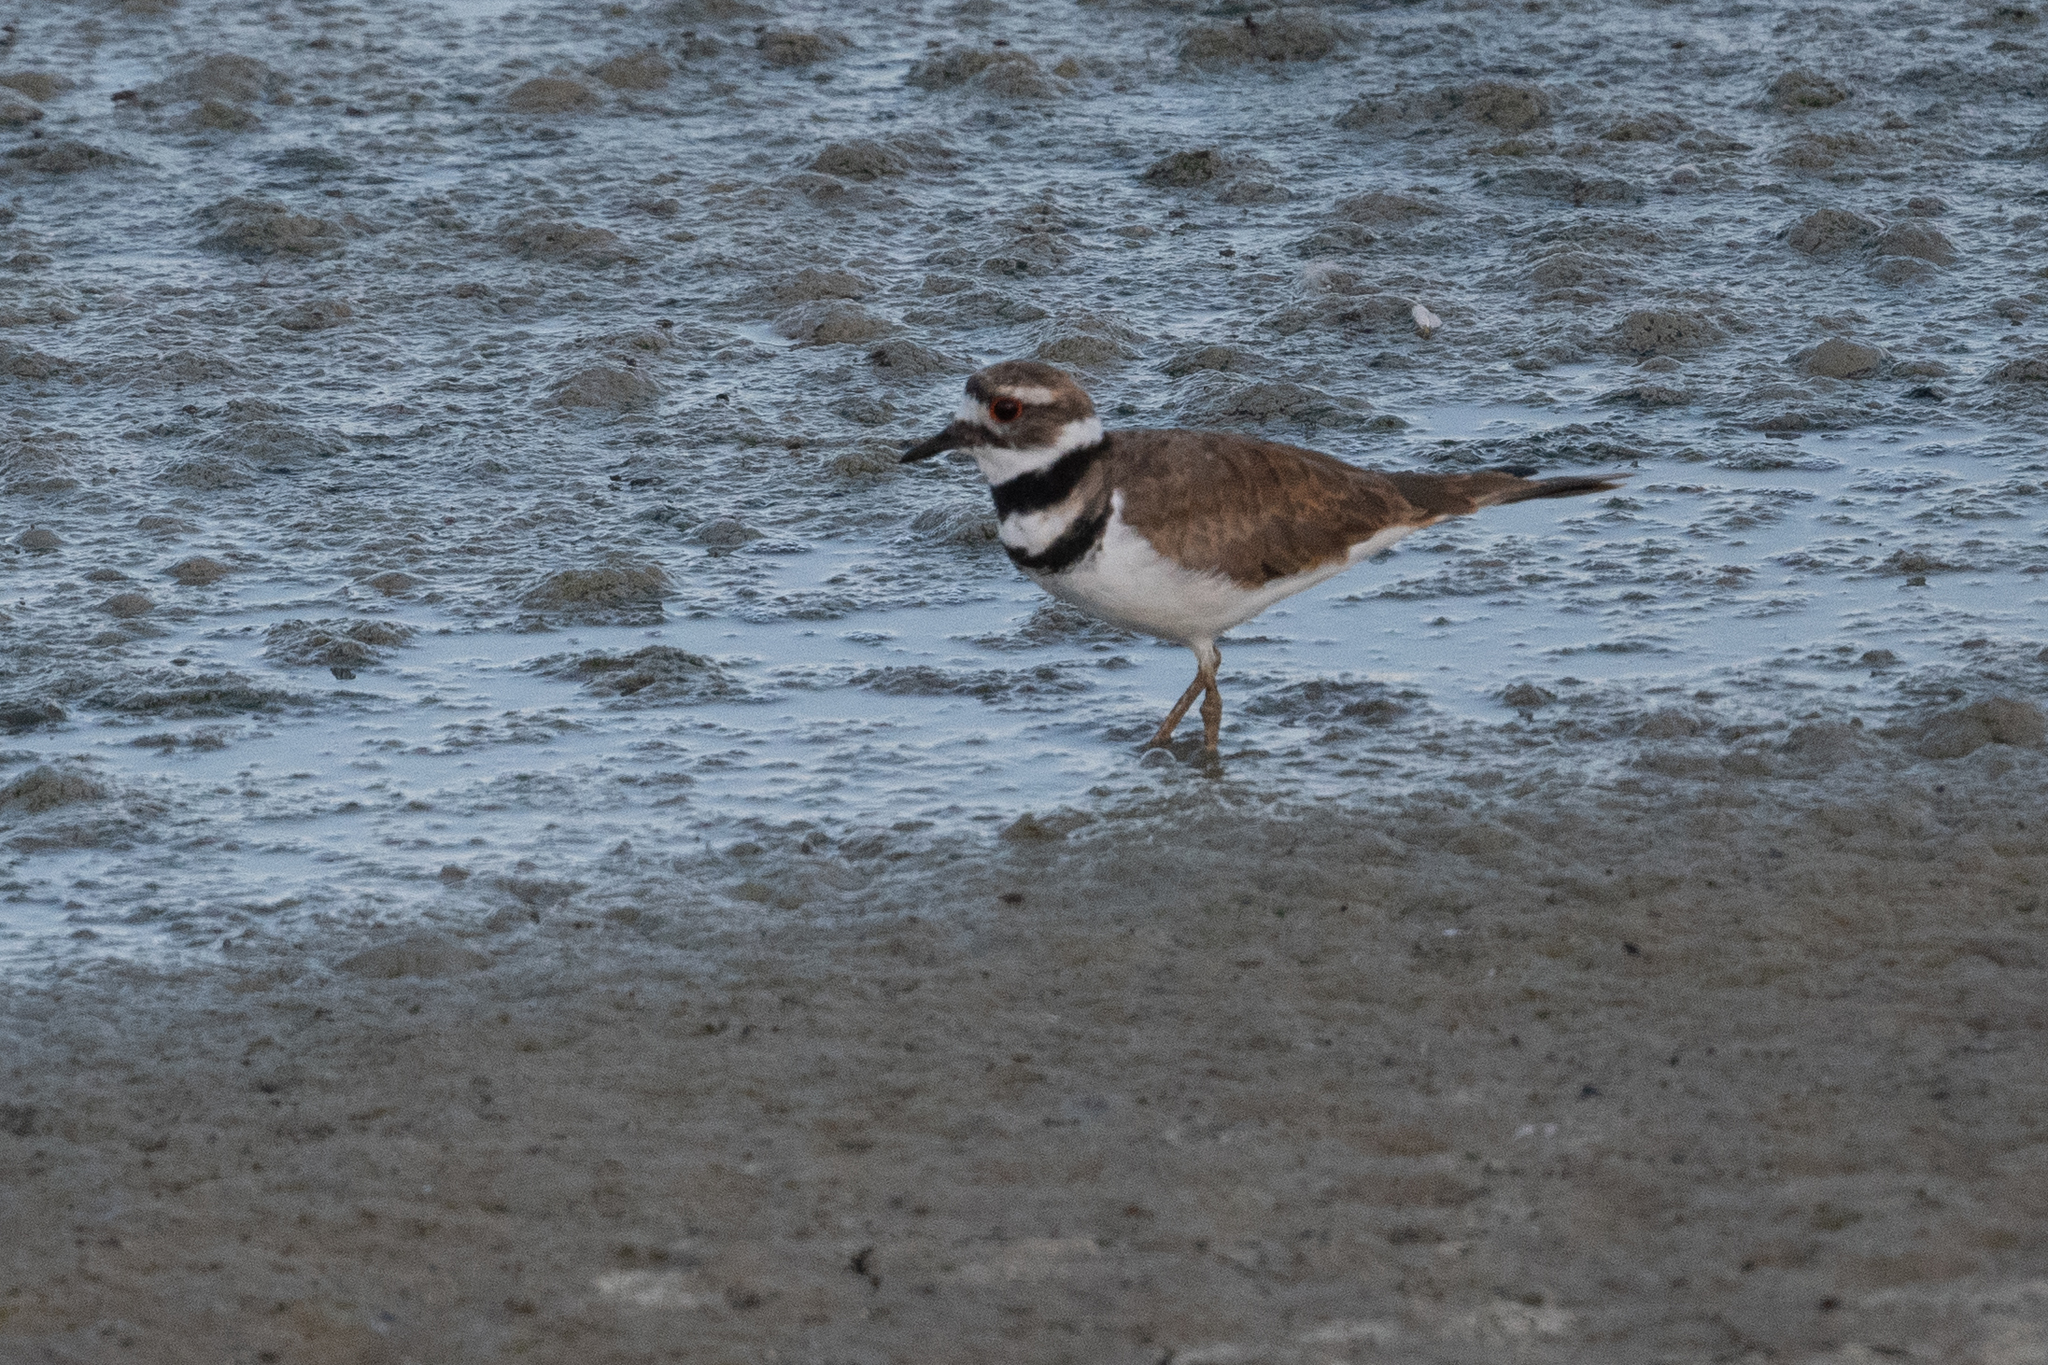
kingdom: Animalia
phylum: Chordata
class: Aves
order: Charadriiformes
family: Charadriidae
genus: Charadrius
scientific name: Charadrius vociferus
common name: Killdeer
